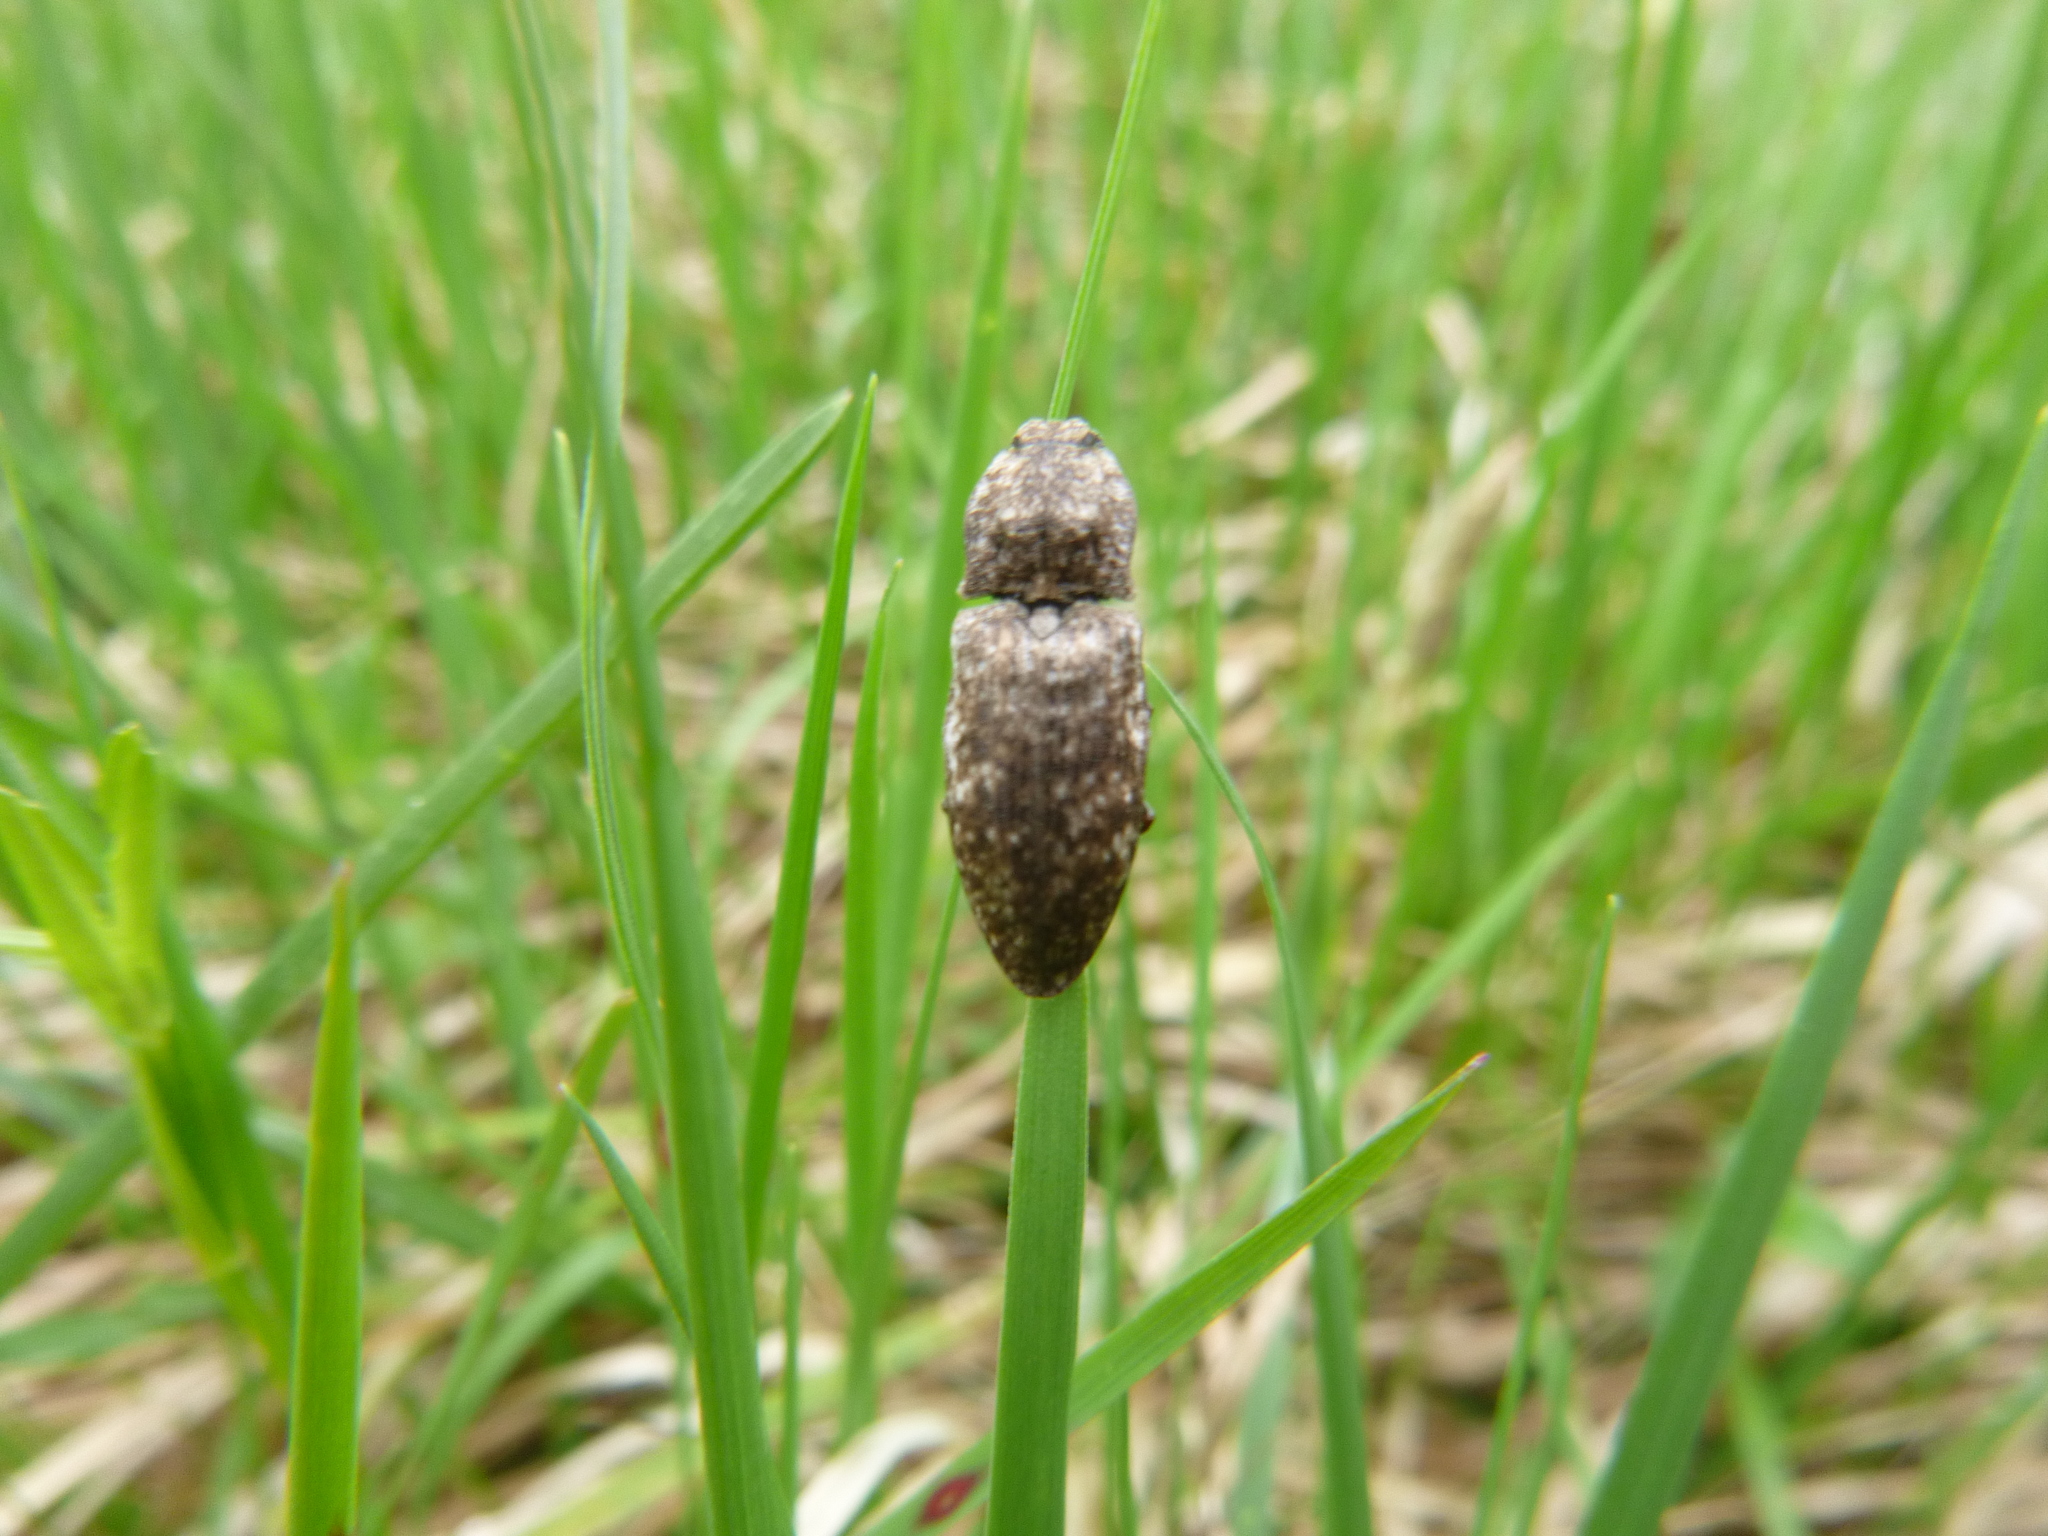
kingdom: Animalia
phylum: Arthropoda
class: Insecta
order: Coleoptera
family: Elateridae
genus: Agrypnus
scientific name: Agrypnus murinus
